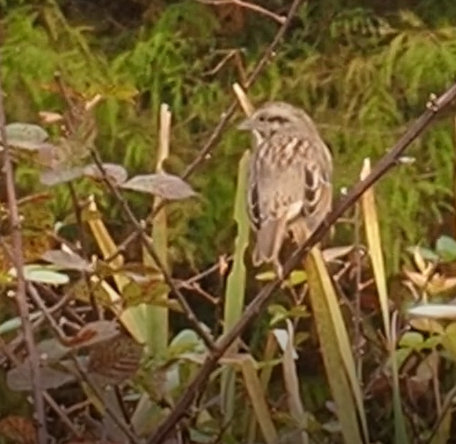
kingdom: Animalia
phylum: Chordata
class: Aves
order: Passeriformes
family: Passerellidae
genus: Melospiza
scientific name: Melospiza melodia
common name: Song sparrow
